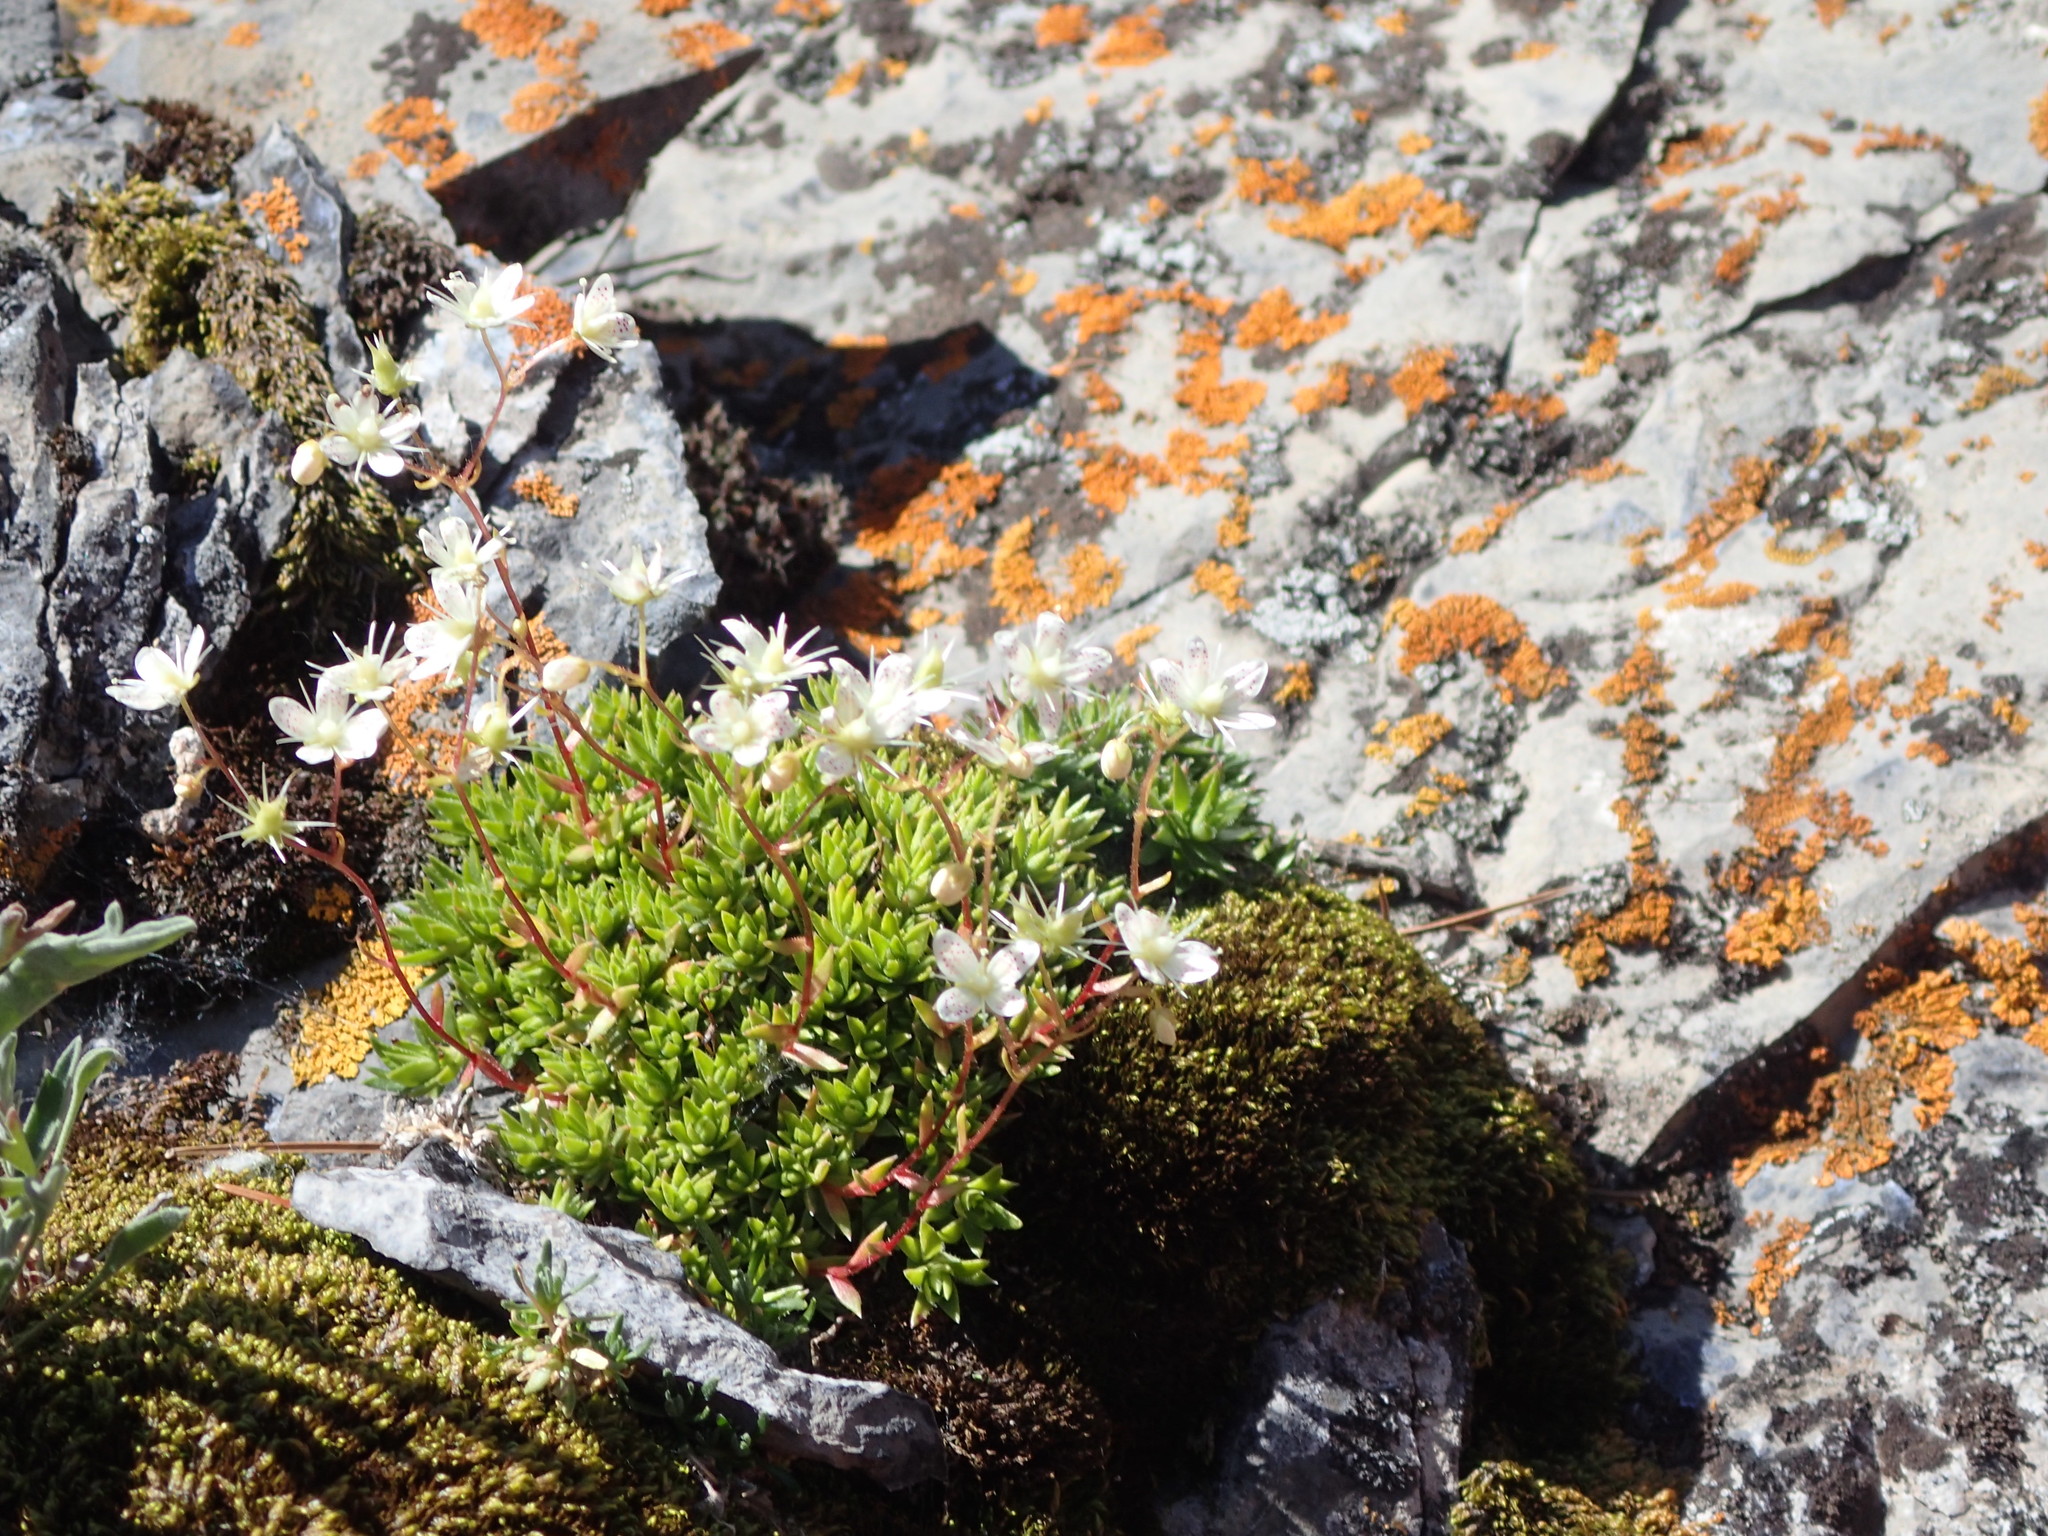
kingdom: Plantae
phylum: Tracheophyta
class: Magnoliopsida
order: Saxifragales
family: Saxifragaceae
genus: Saxifraga
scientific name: Saxifraga bronchialis
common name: Matted saxifrage
